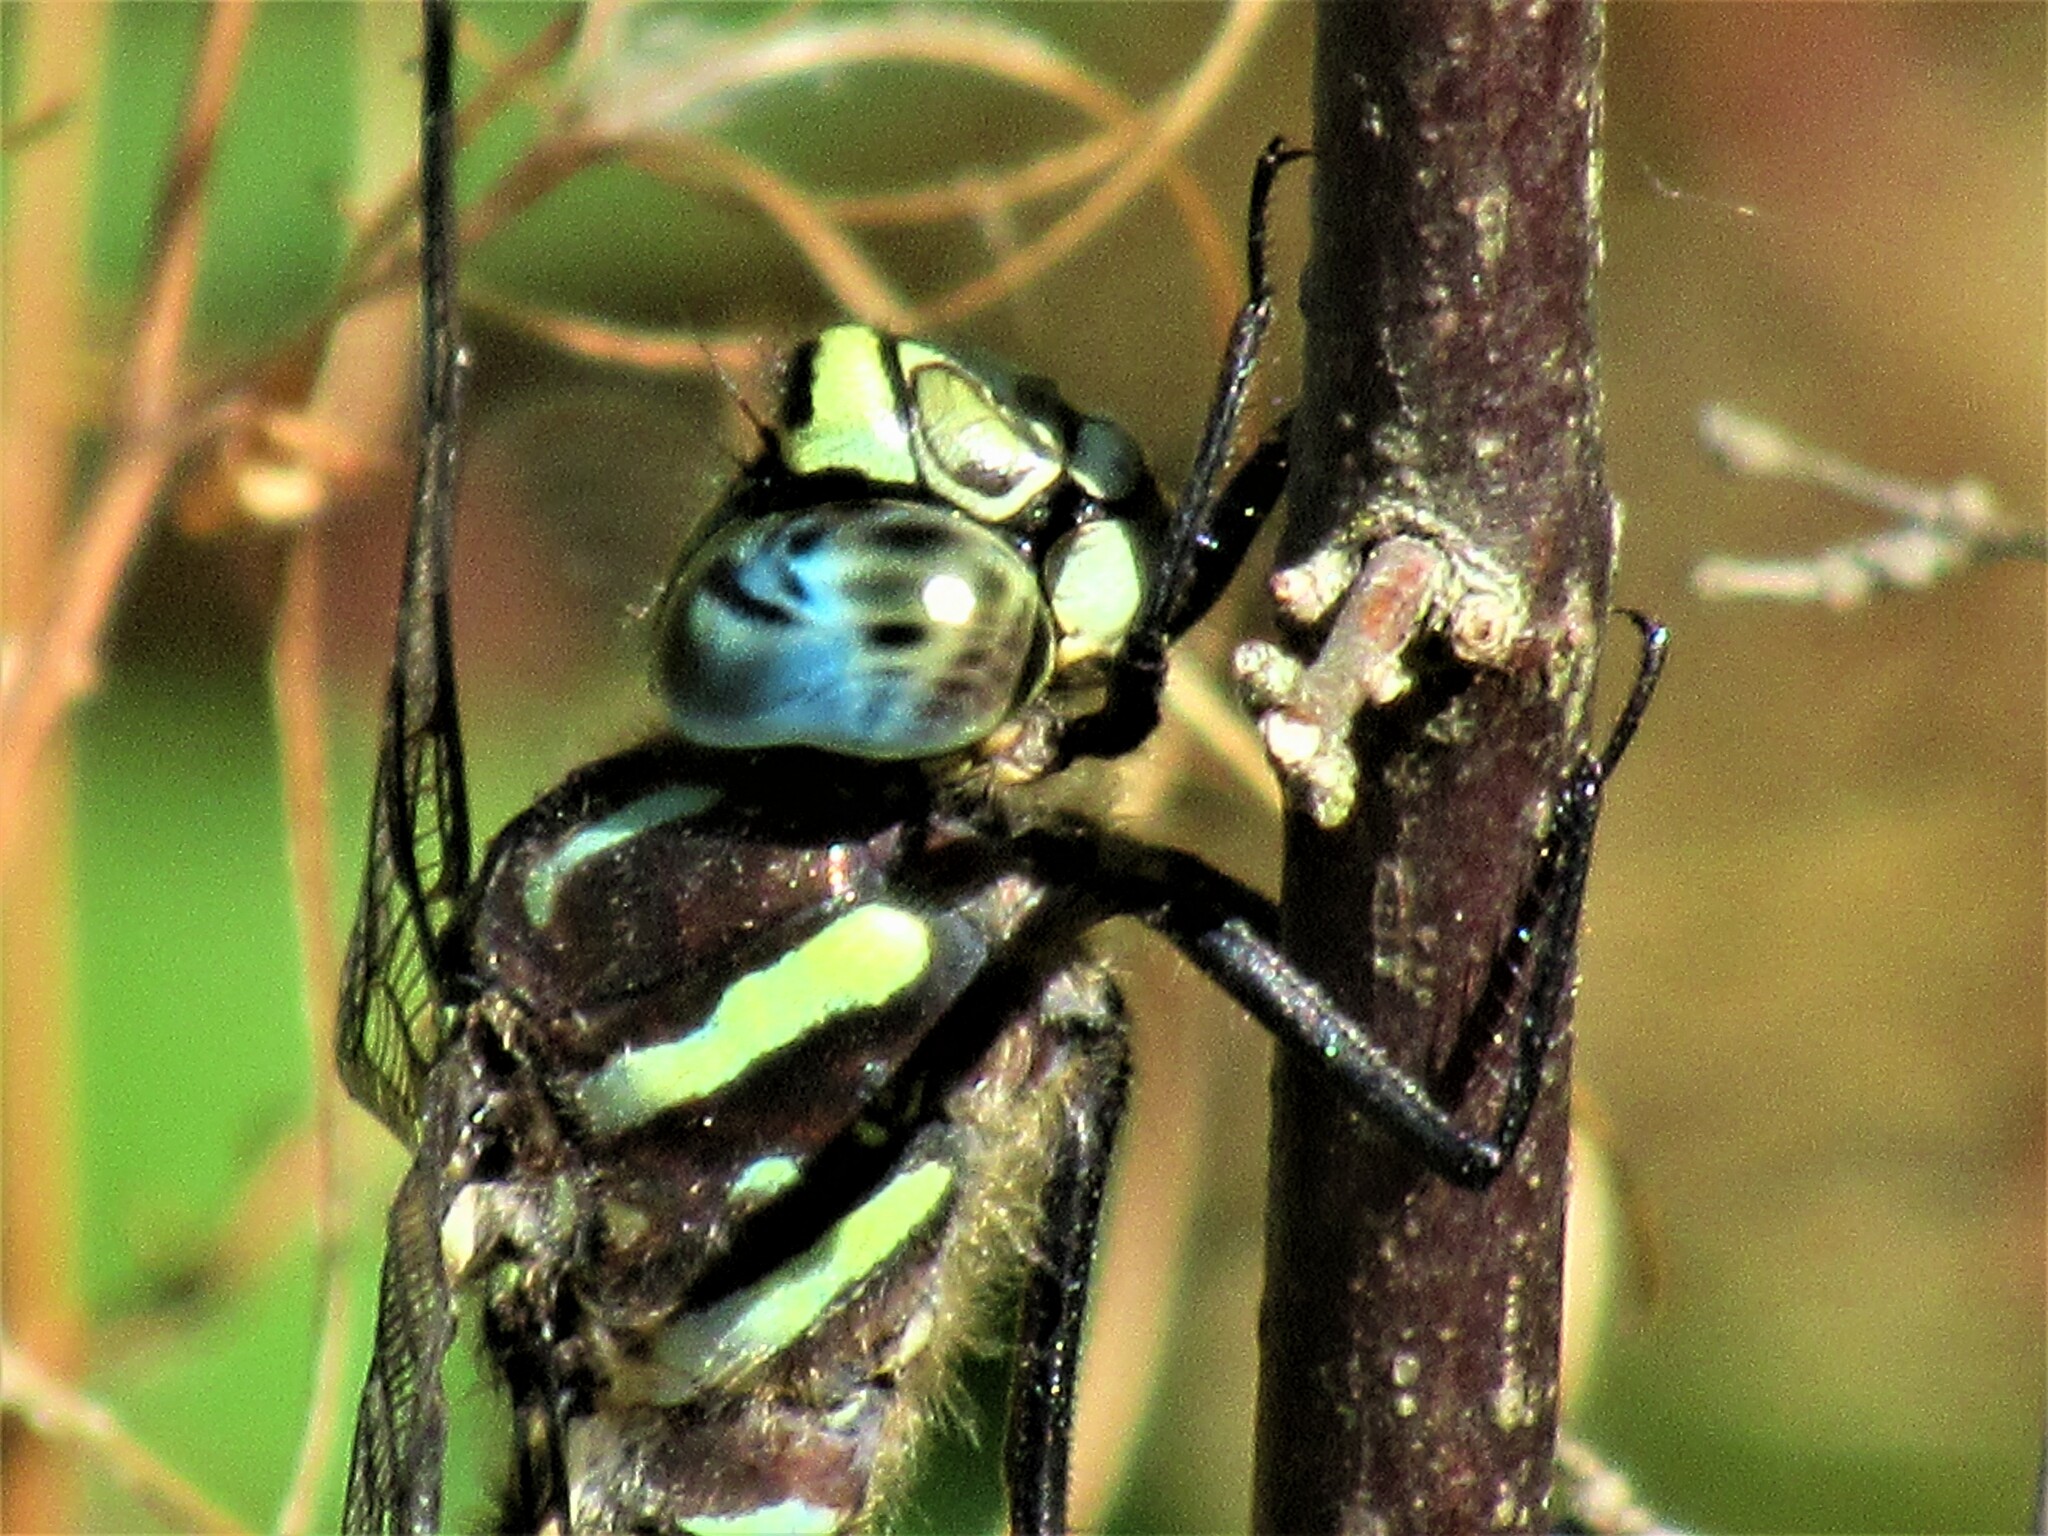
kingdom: Animalia
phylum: Arthropoda
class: Insecta
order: Odonata
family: Aeshnidae
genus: Aeshna
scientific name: Aeshna palmata
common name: Paddle-tailed darner
